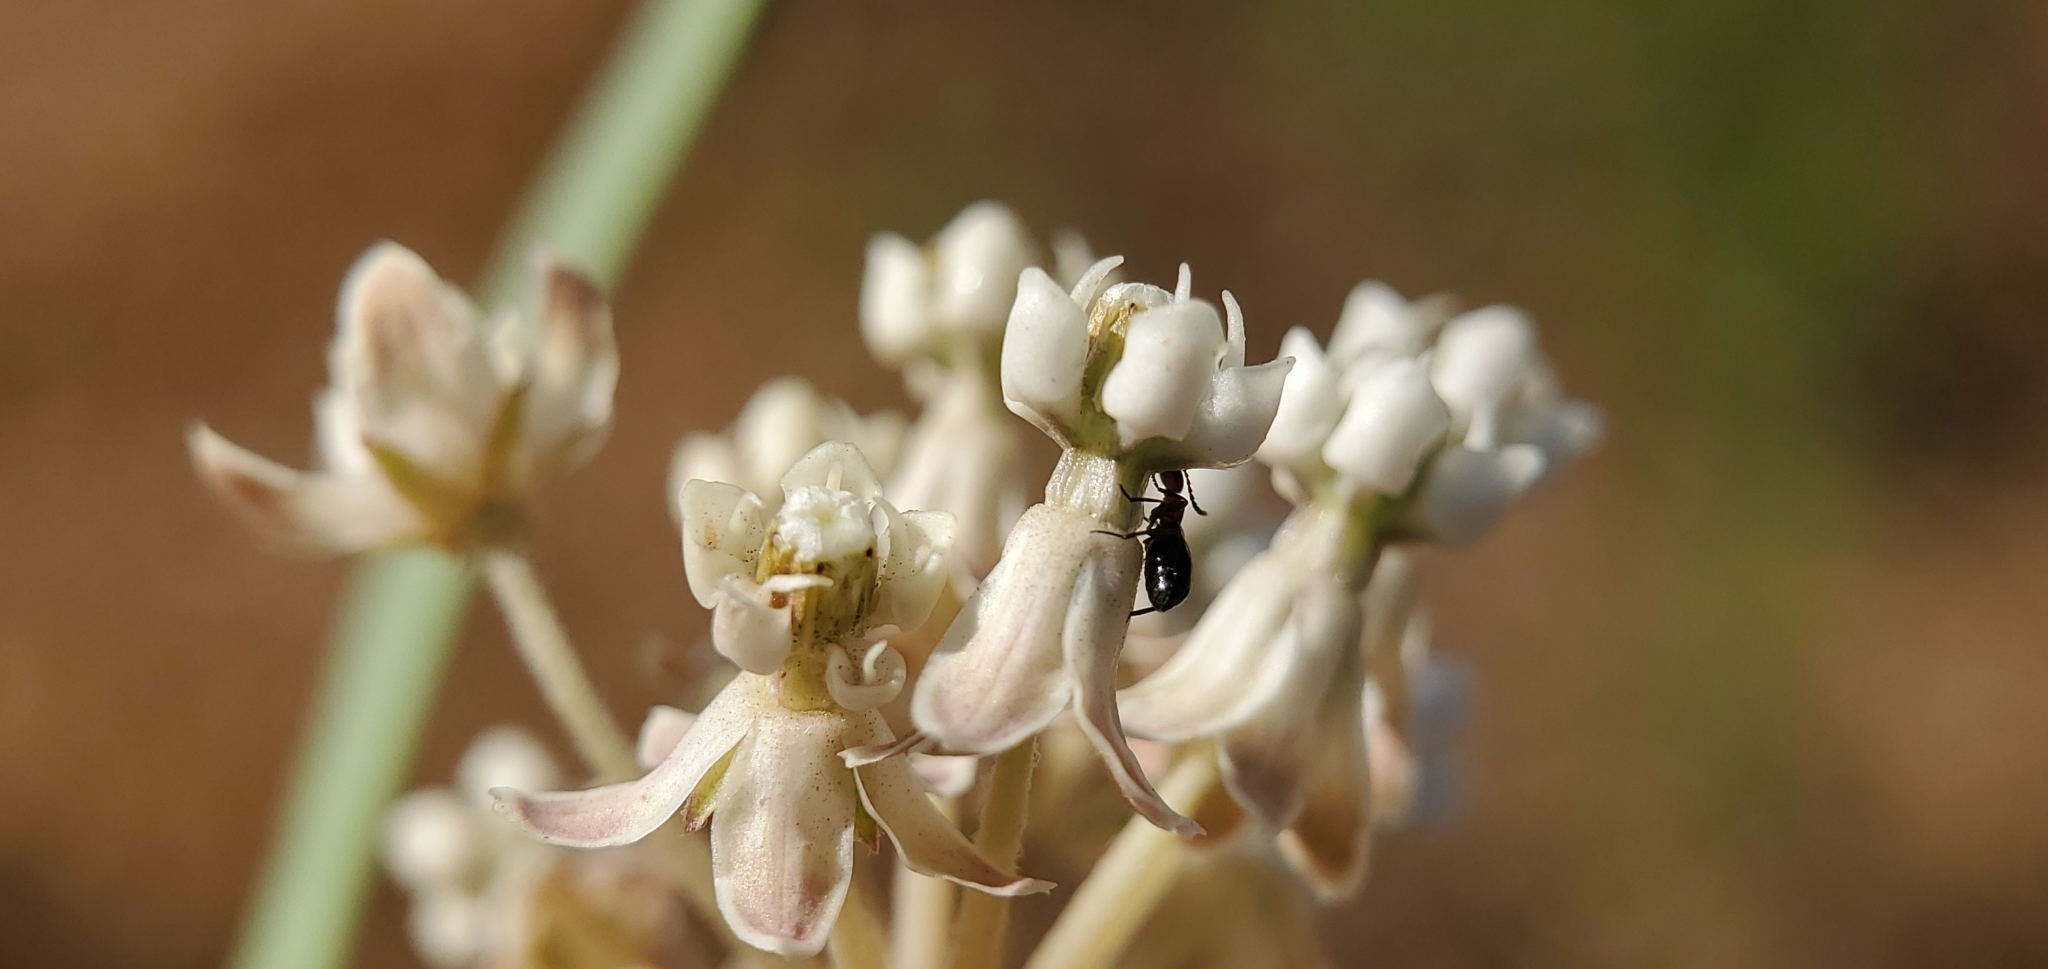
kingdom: Plantae
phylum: Tracheophyta
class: Magnoliopsida
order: Gentianales
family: Apocynaceae
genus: Asclepias
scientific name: Asclepias fascicularis
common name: Mexican milkweed
